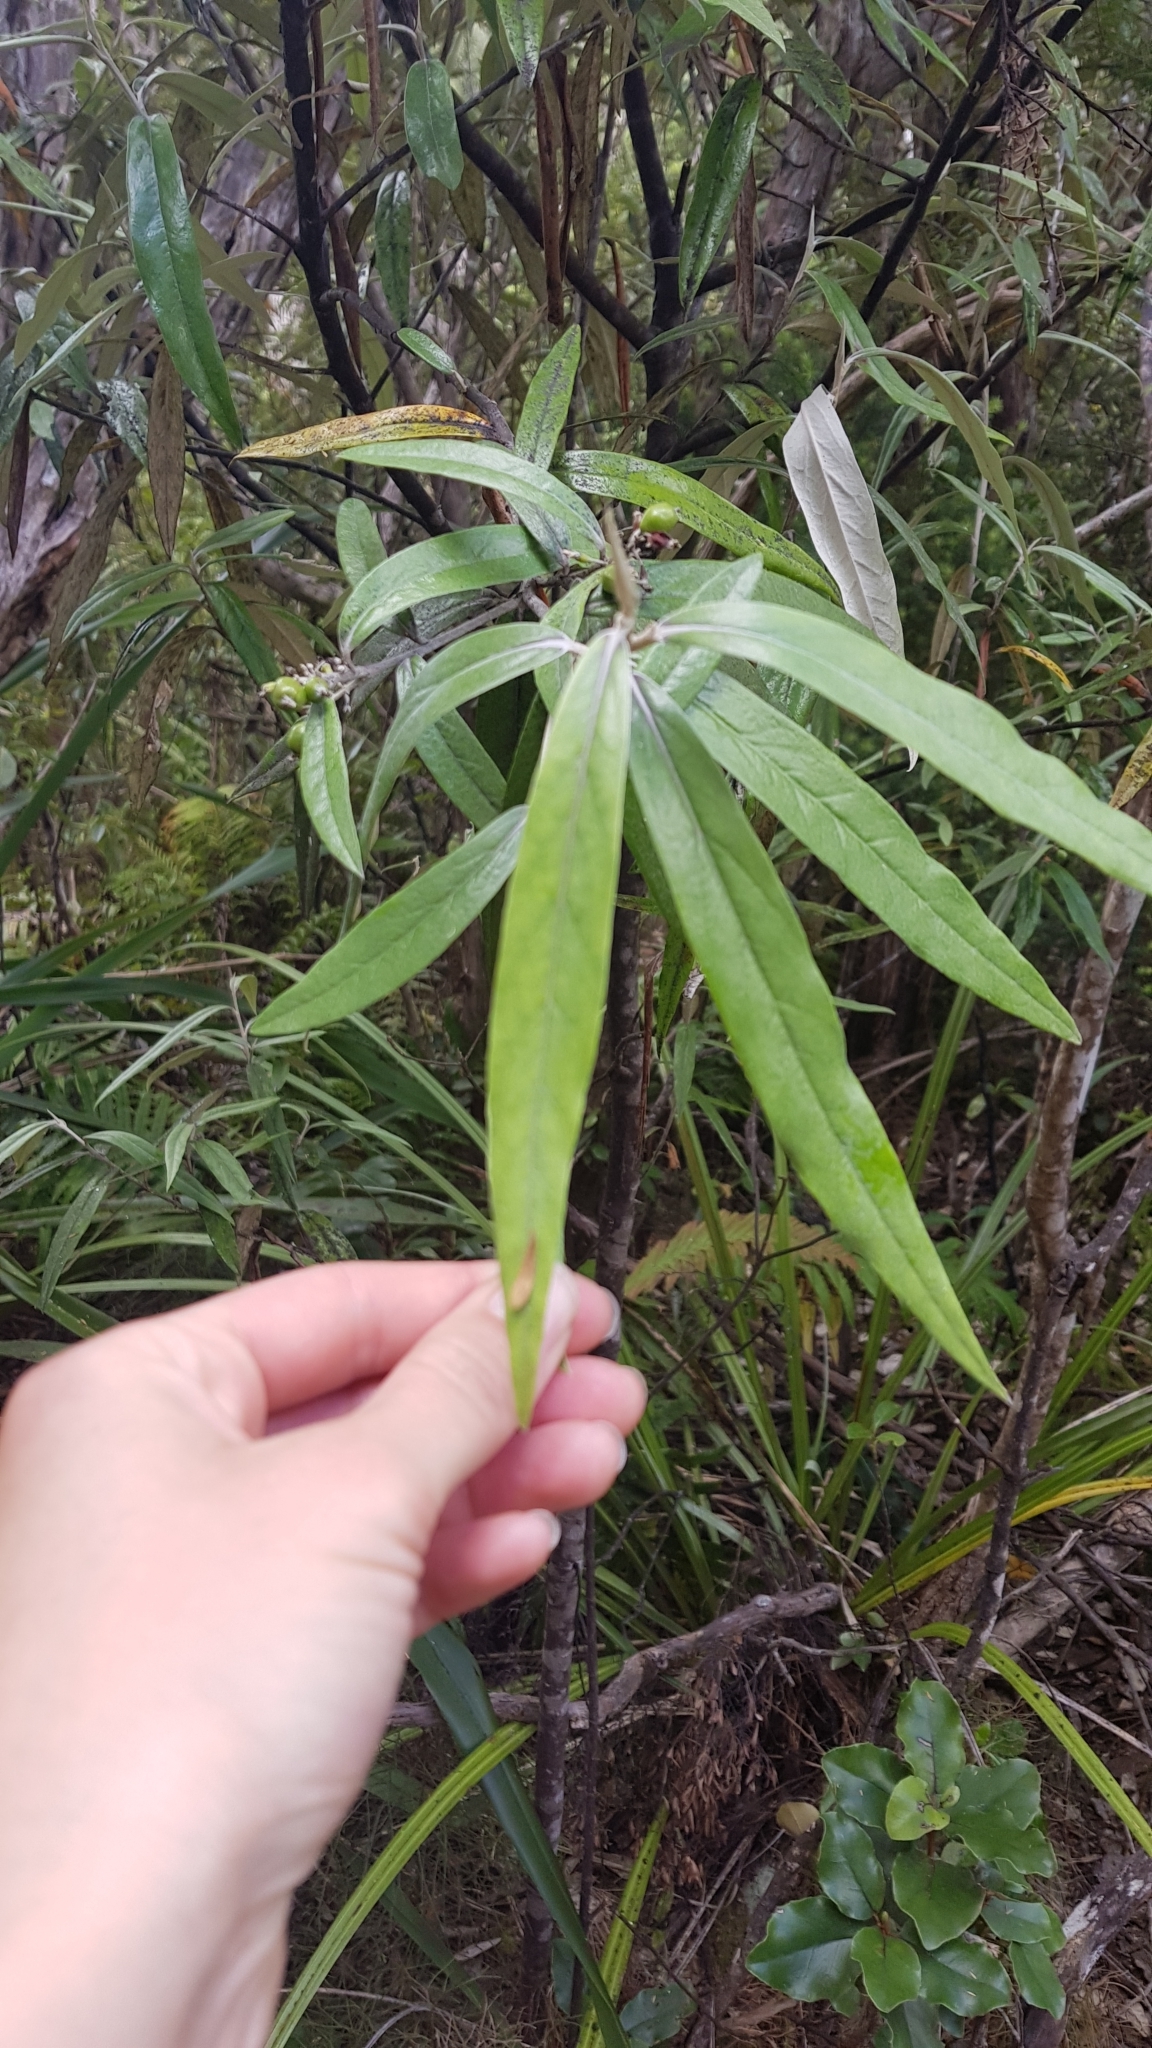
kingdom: Plantae
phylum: Tracheophyta
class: Magnoliopsida
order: Asterales
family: Argophyllaceae
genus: Corokia
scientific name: Corokia buddleioides
